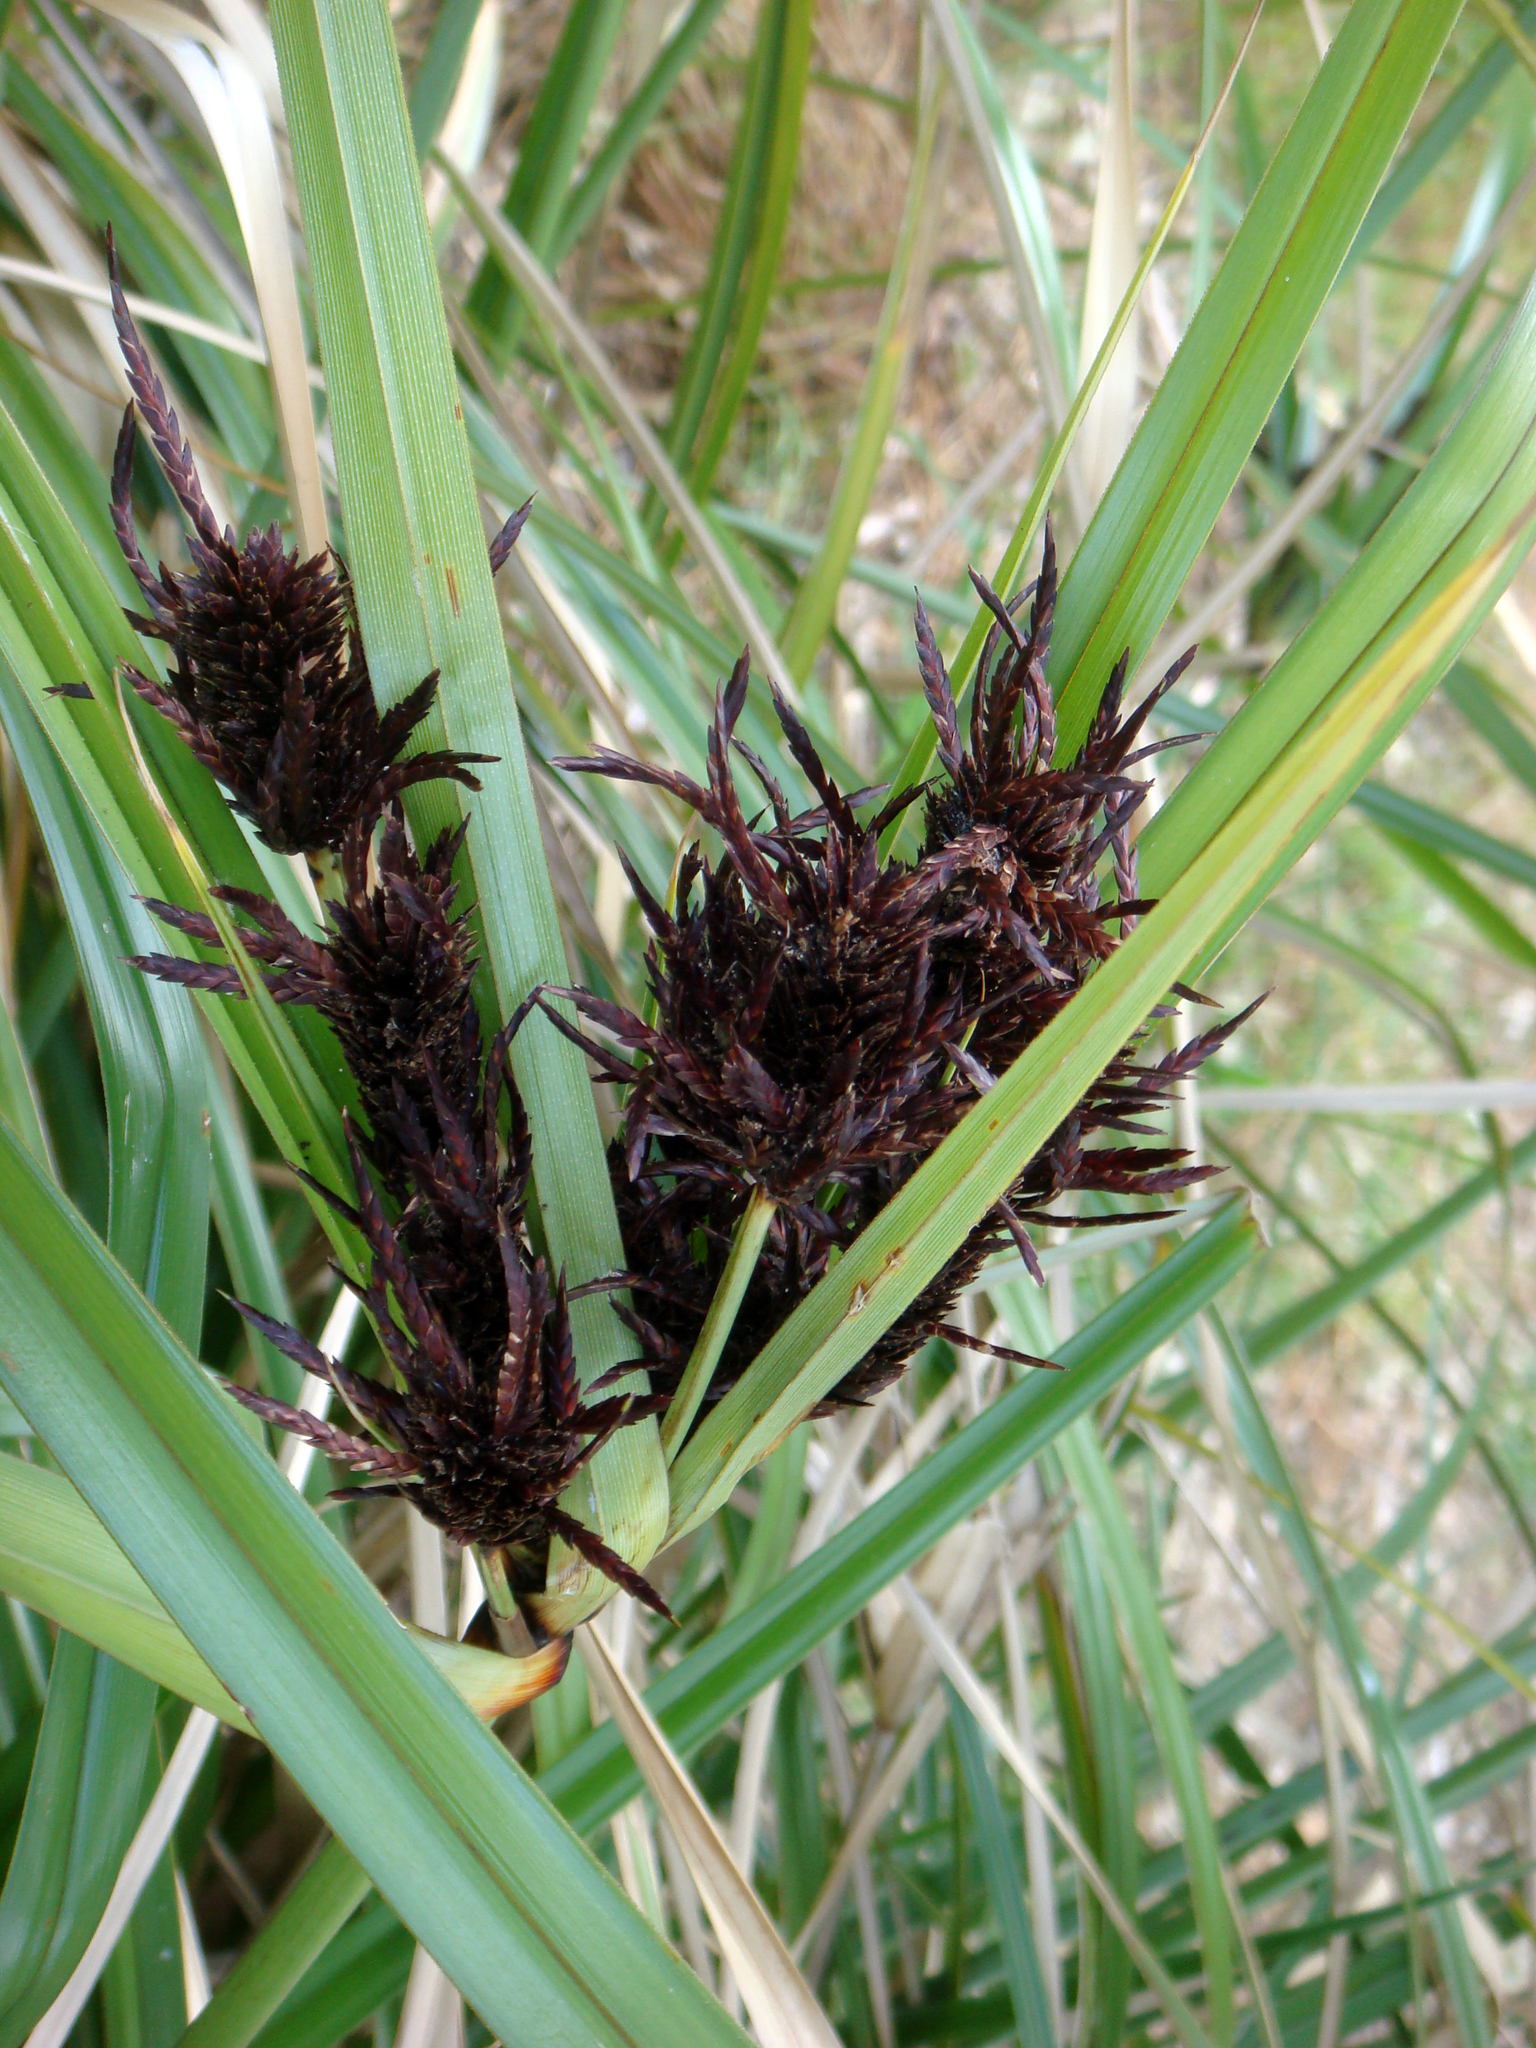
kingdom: Fungi
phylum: Basidiomycota
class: Microbotryomycetes
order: Microbotryales
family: Microbotryaceae
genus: Bauerago
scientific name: Bauerago gardneri
